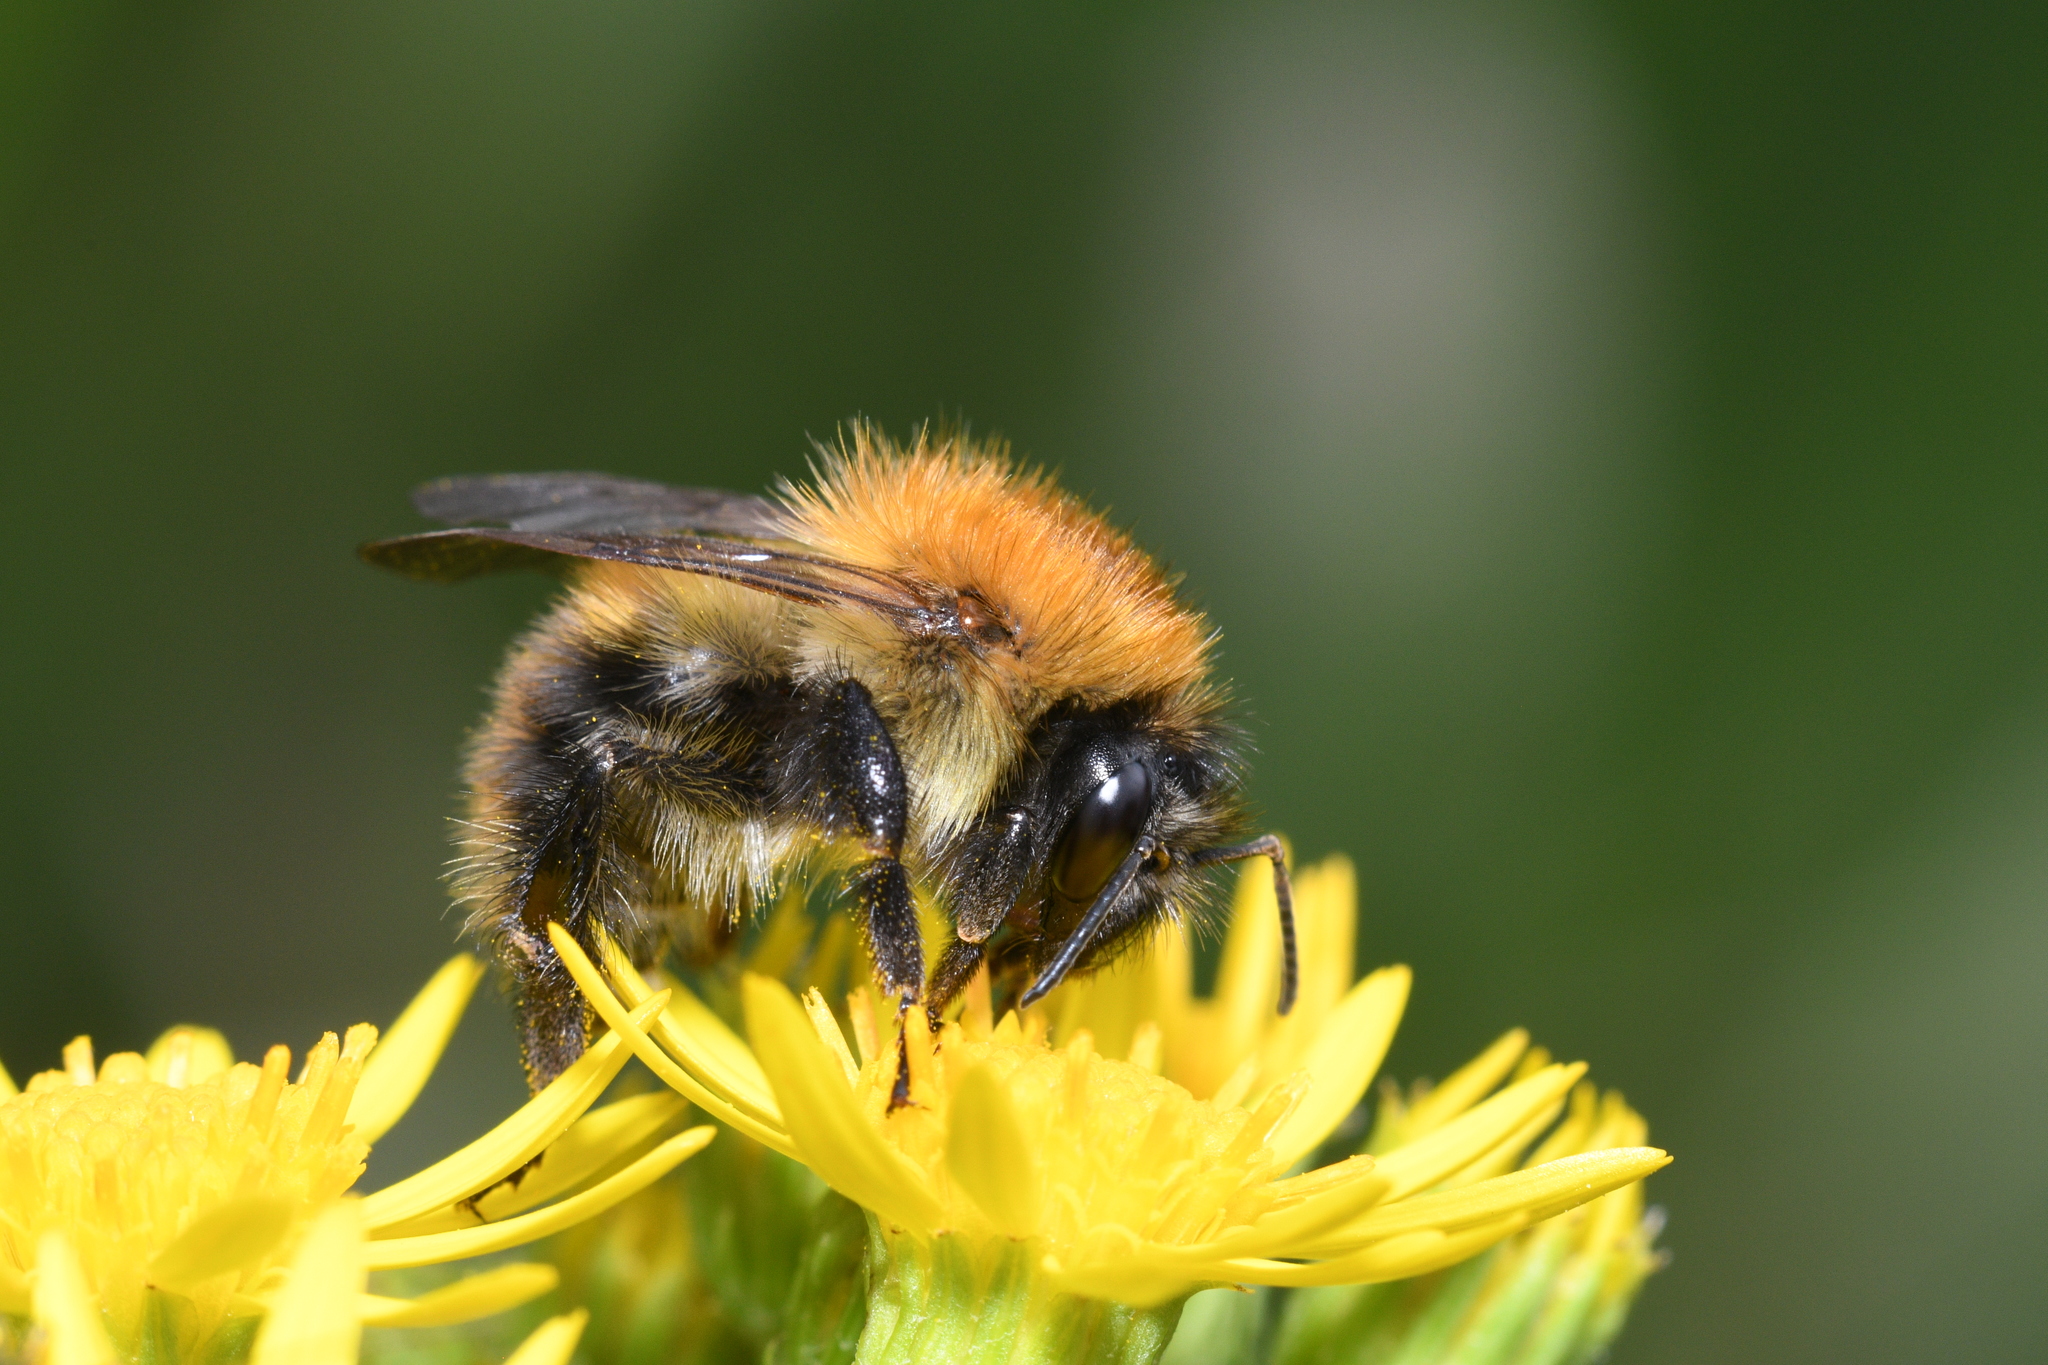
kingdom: Animalia
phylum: Arthropoda
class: Insecta
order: Hymenoptera
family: Apidae
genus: Bombus
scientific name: Bombus pascuorum
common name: Common carder bee
